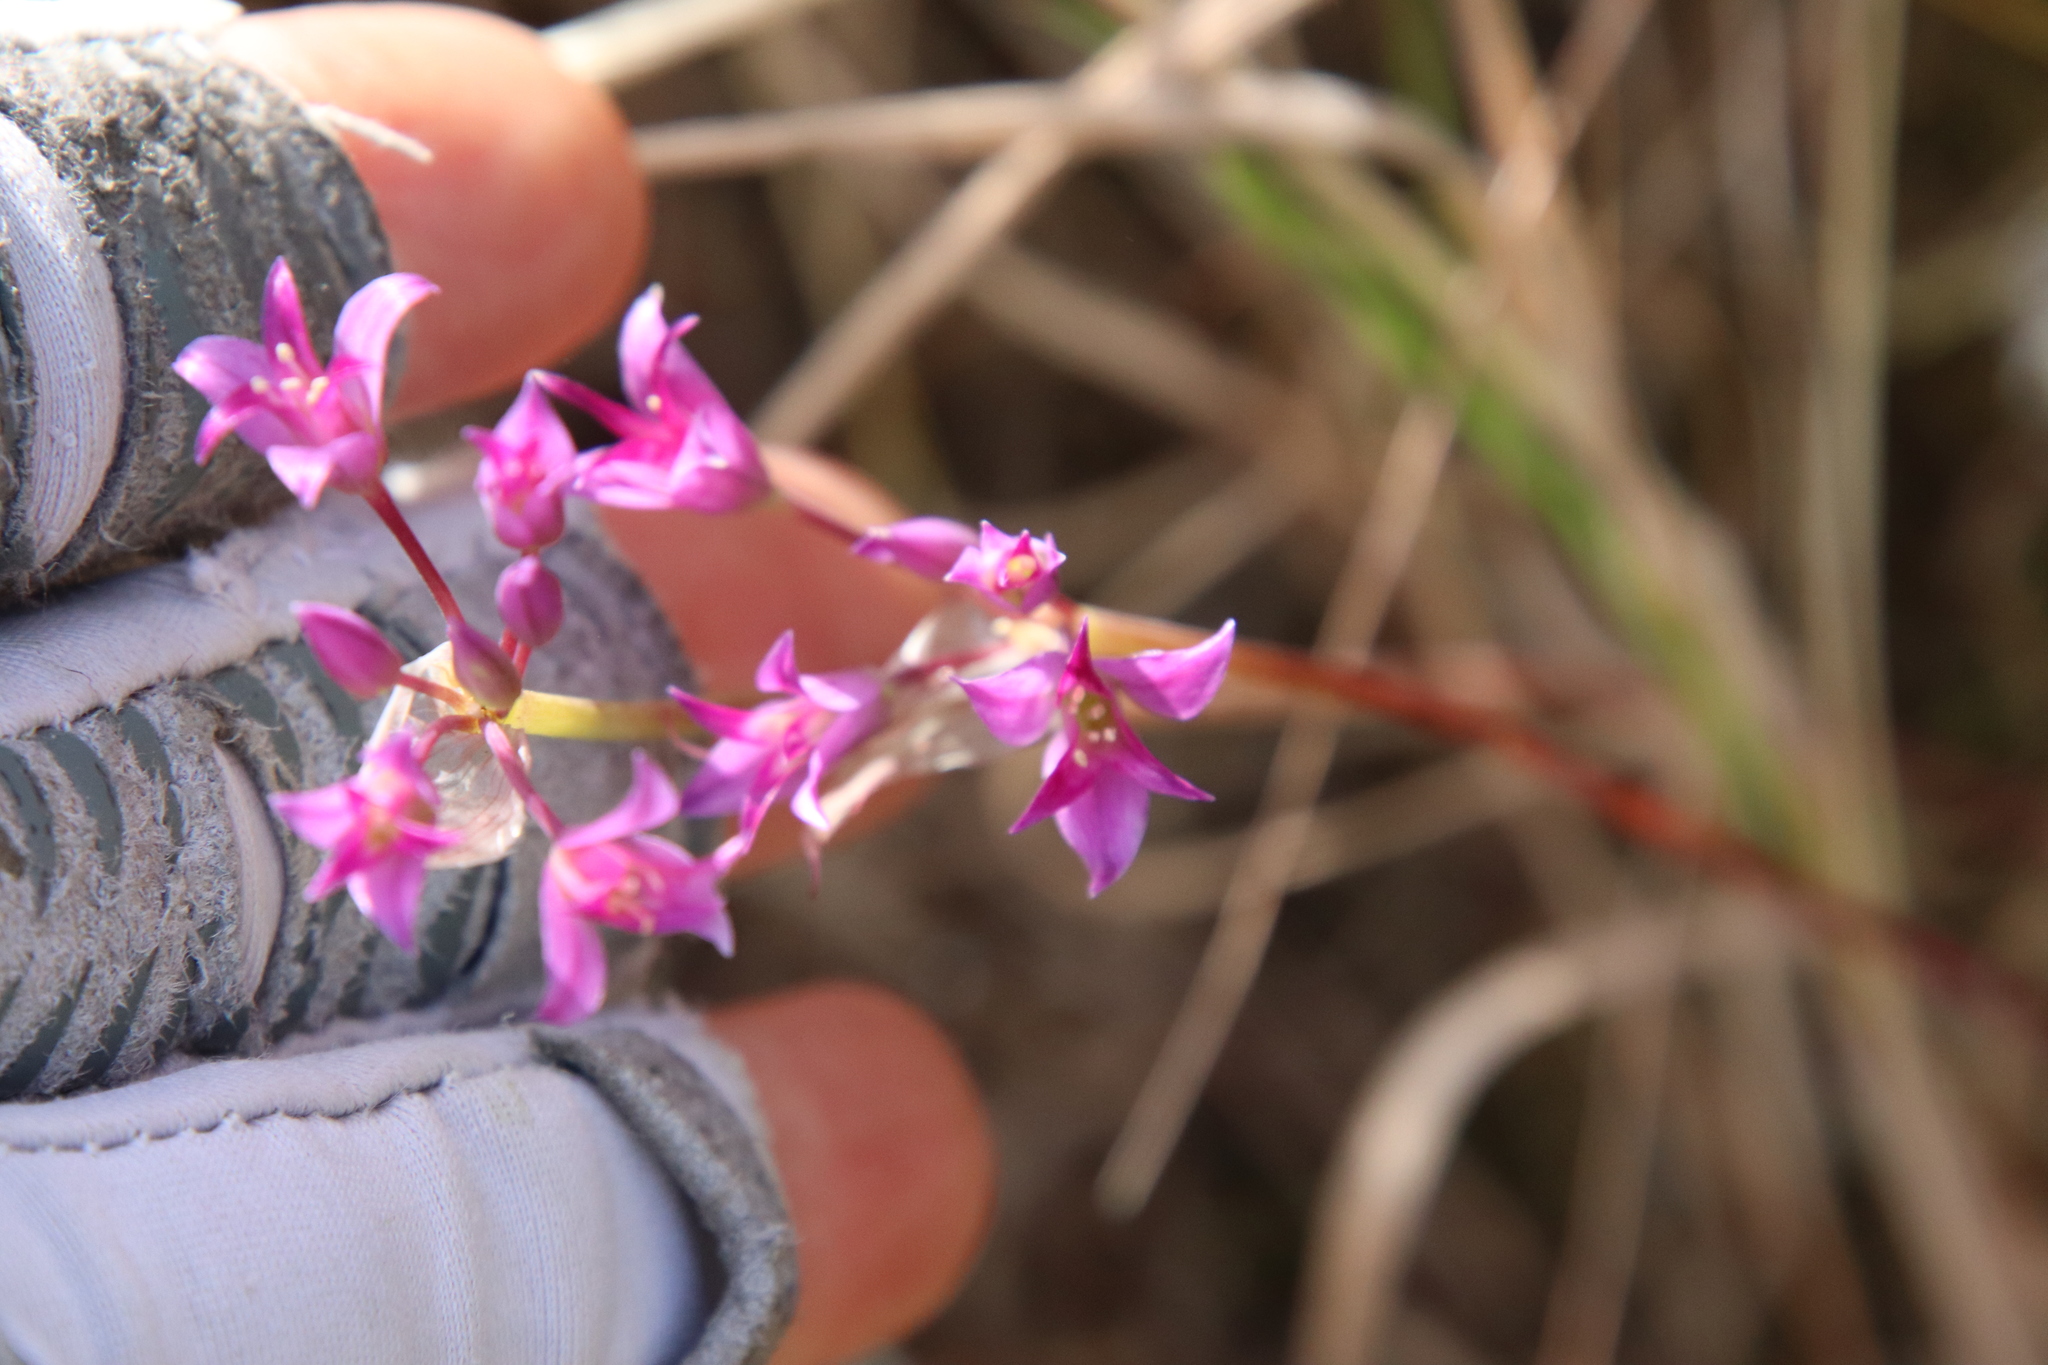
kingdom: Plantae
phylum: Tracheophyta
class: Liliopsida
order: Asparagales
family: Amaryllidaceae
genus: Allium
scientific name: Allium peninsulare
